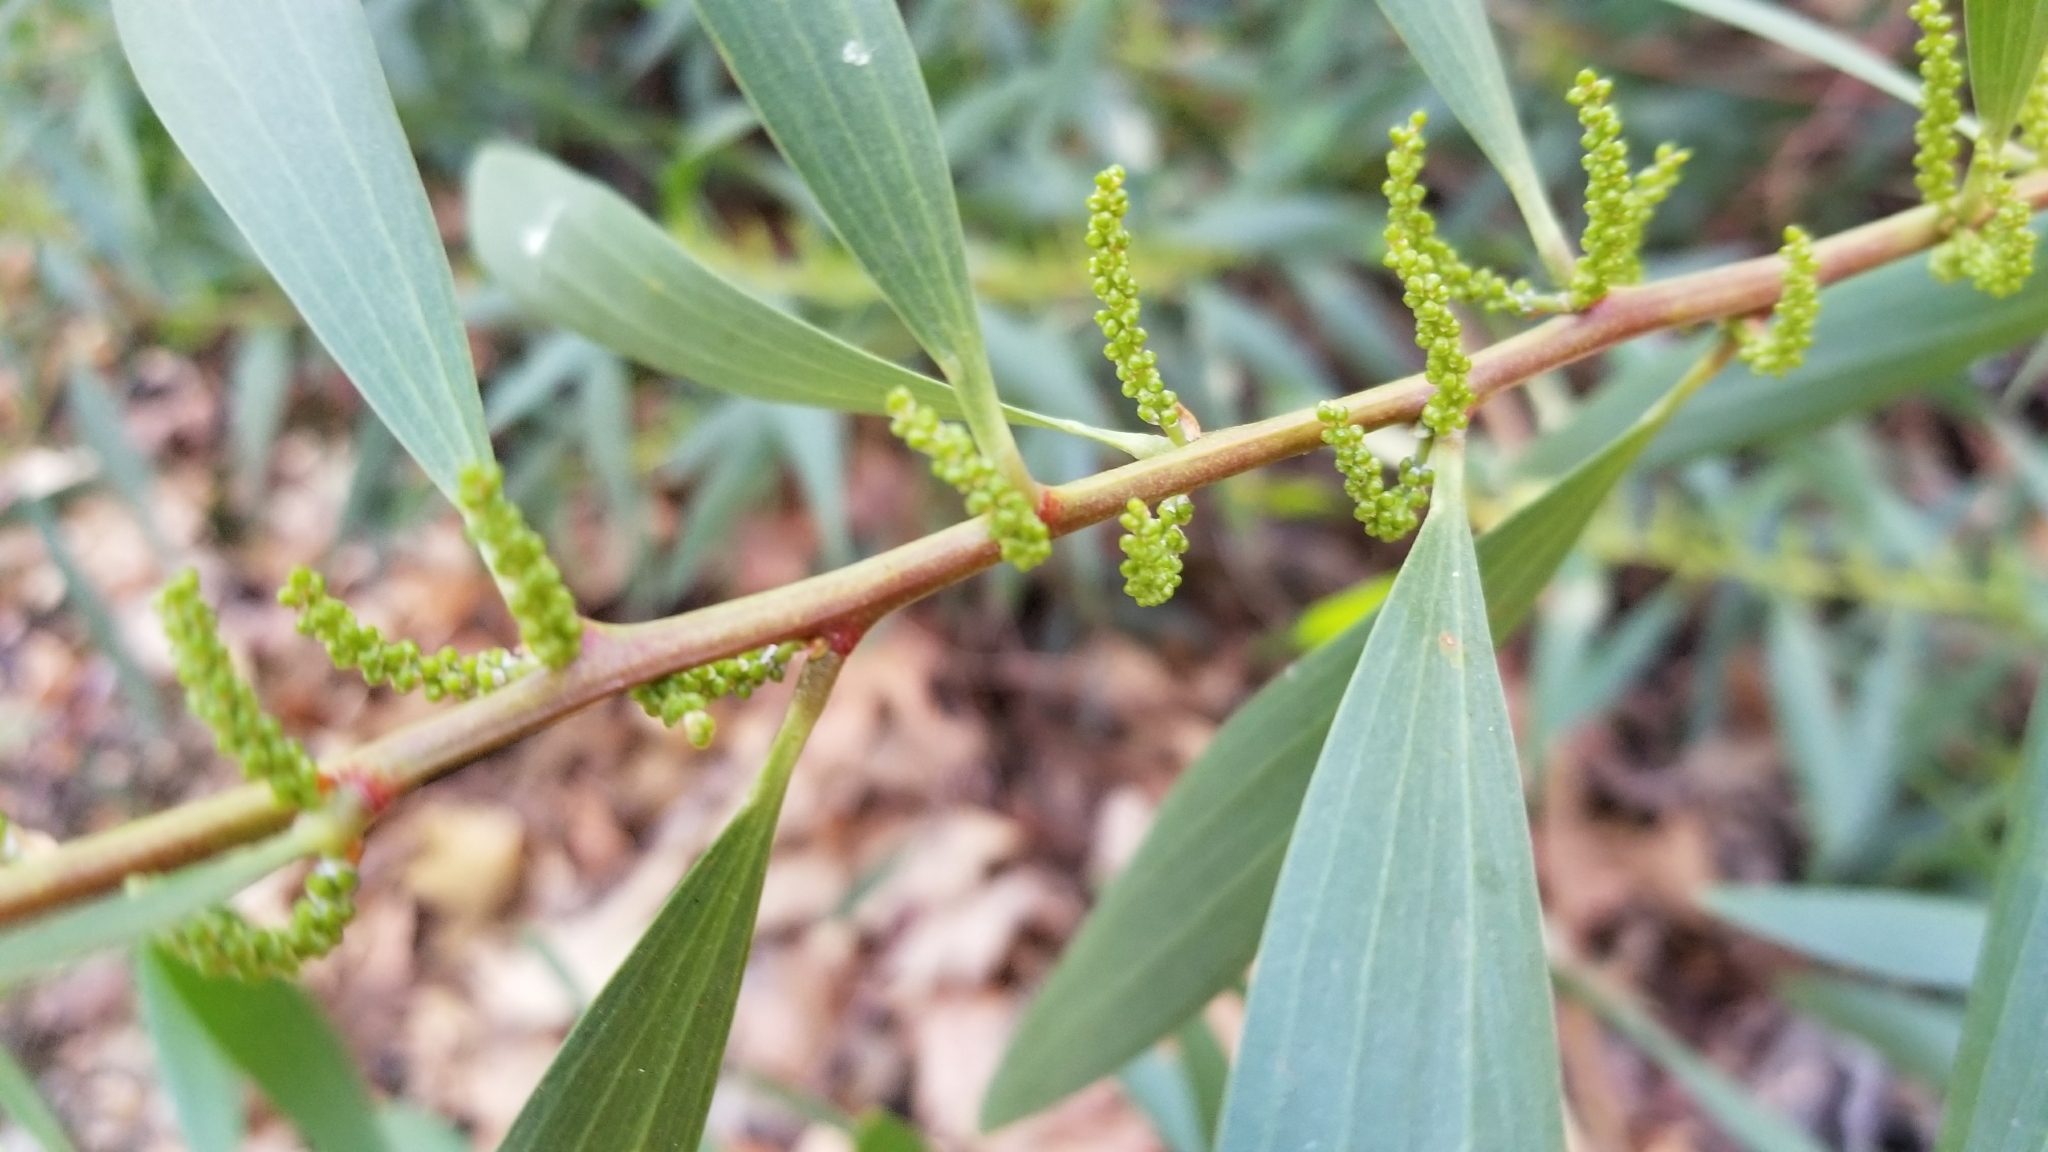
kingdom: Plantae
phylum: Tracheophyta
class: Magnoliopsida
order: Fabales
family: Fabaceae
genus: Acacia
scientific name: Acacia longifolia
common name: Sydney golden wattle
